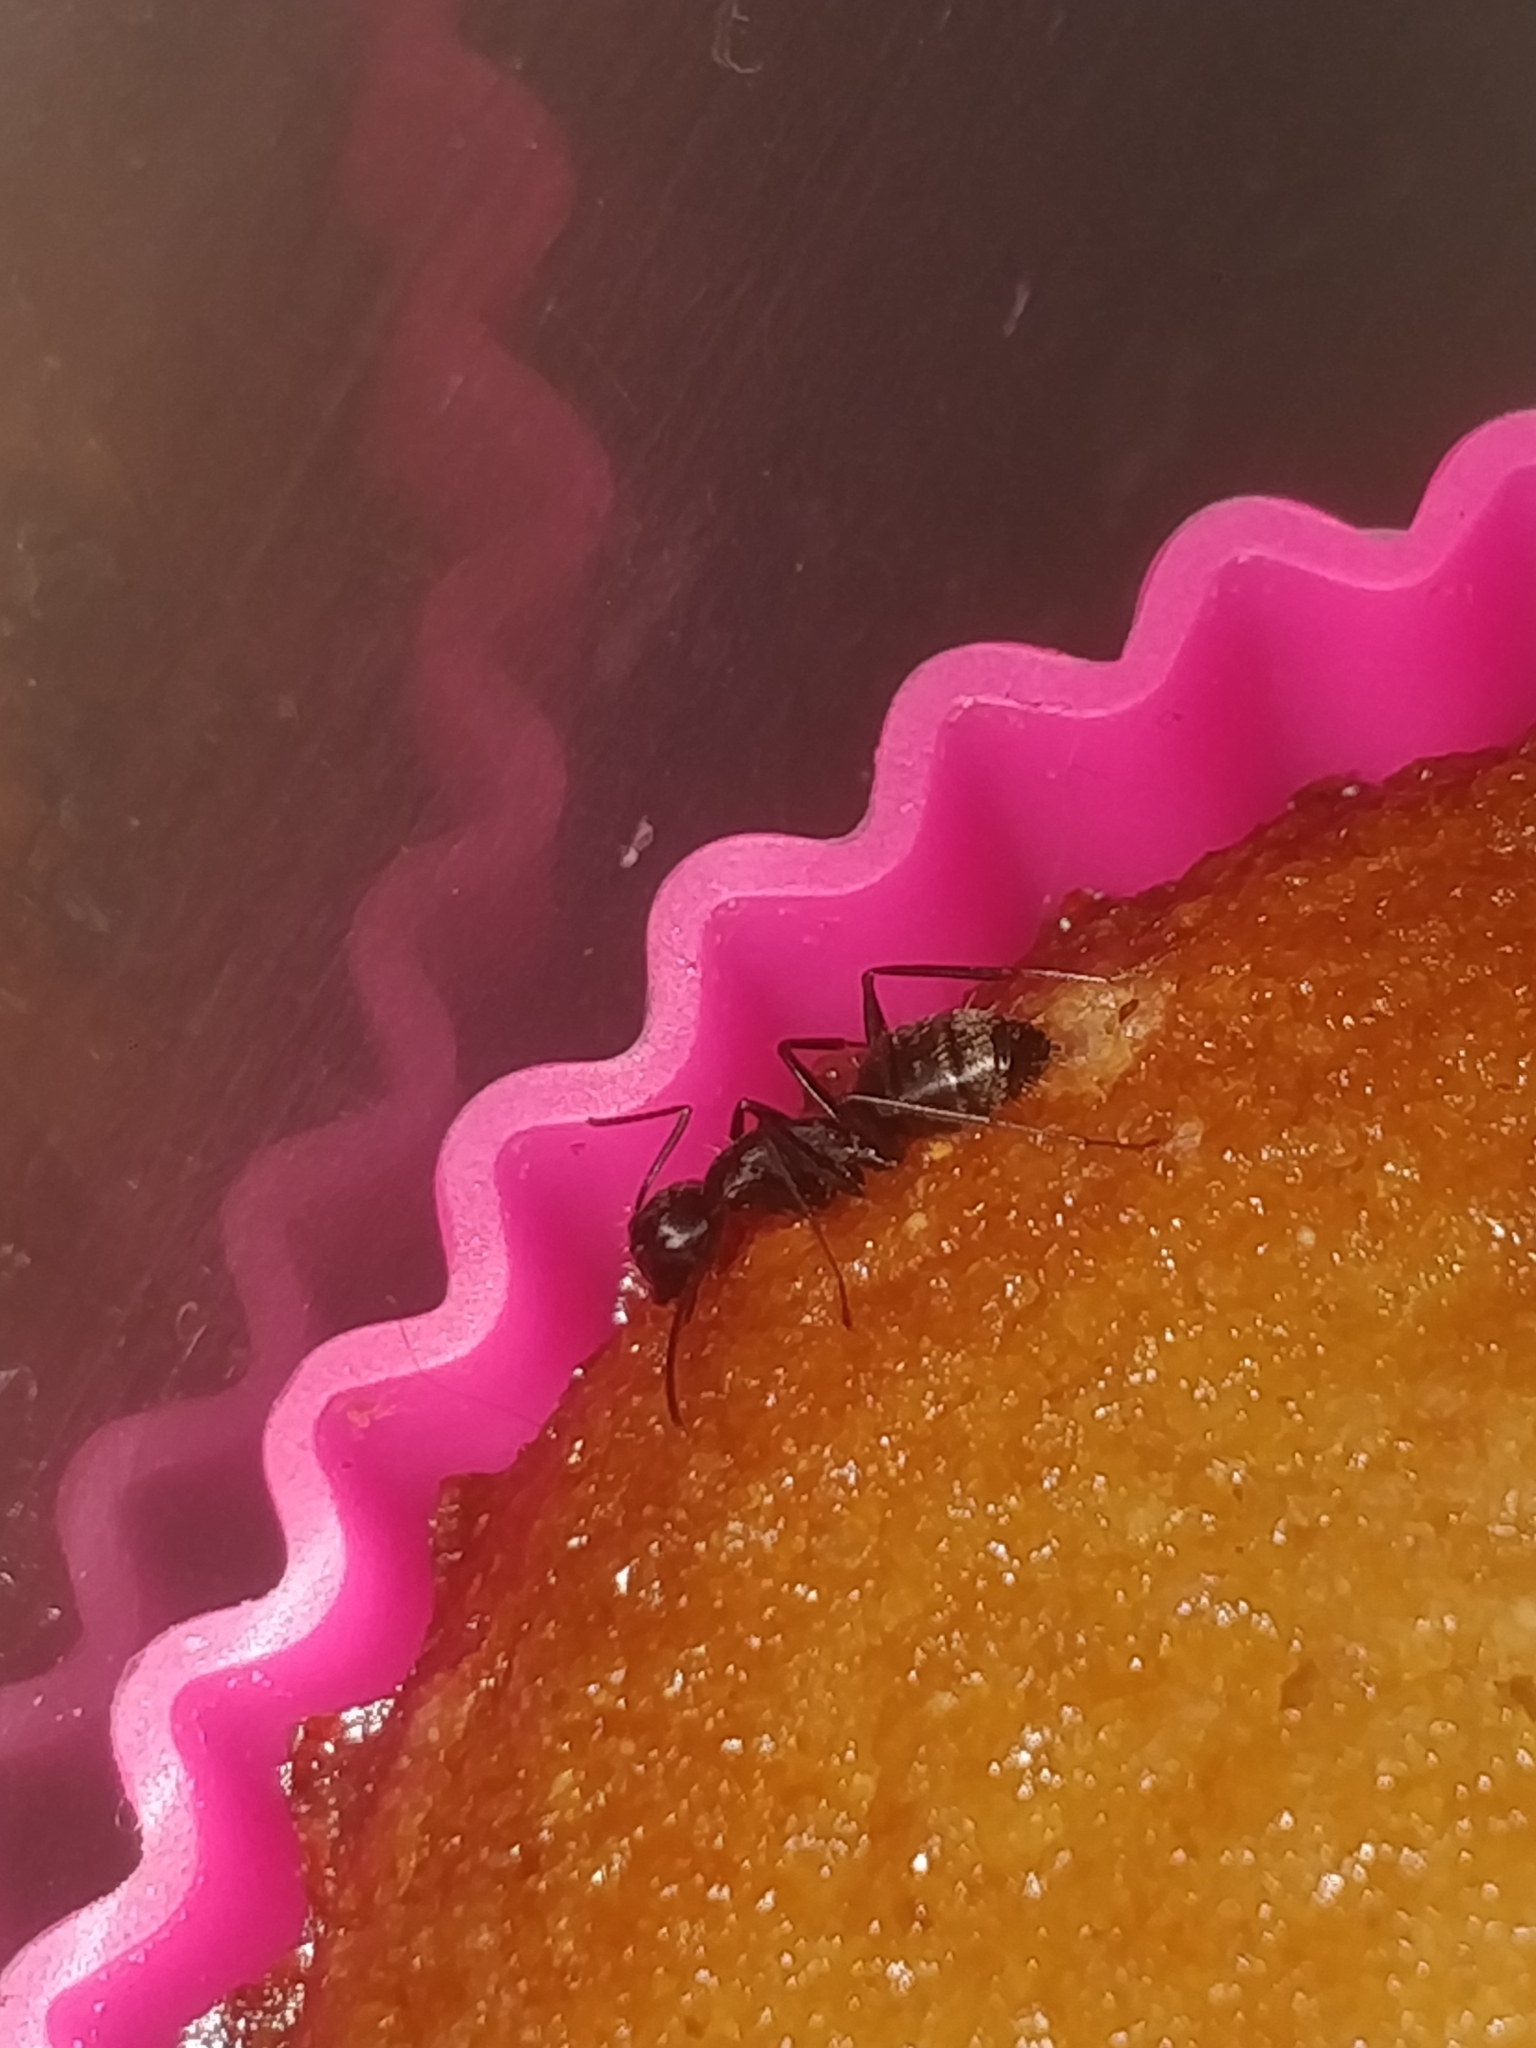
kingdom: Animalia
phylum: Arthropoda
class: Insecta
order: Hymenoptera
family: Formicidae
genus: Camponotus
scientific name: Camponotus pennsylvanicus
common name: Black carpenter ant
